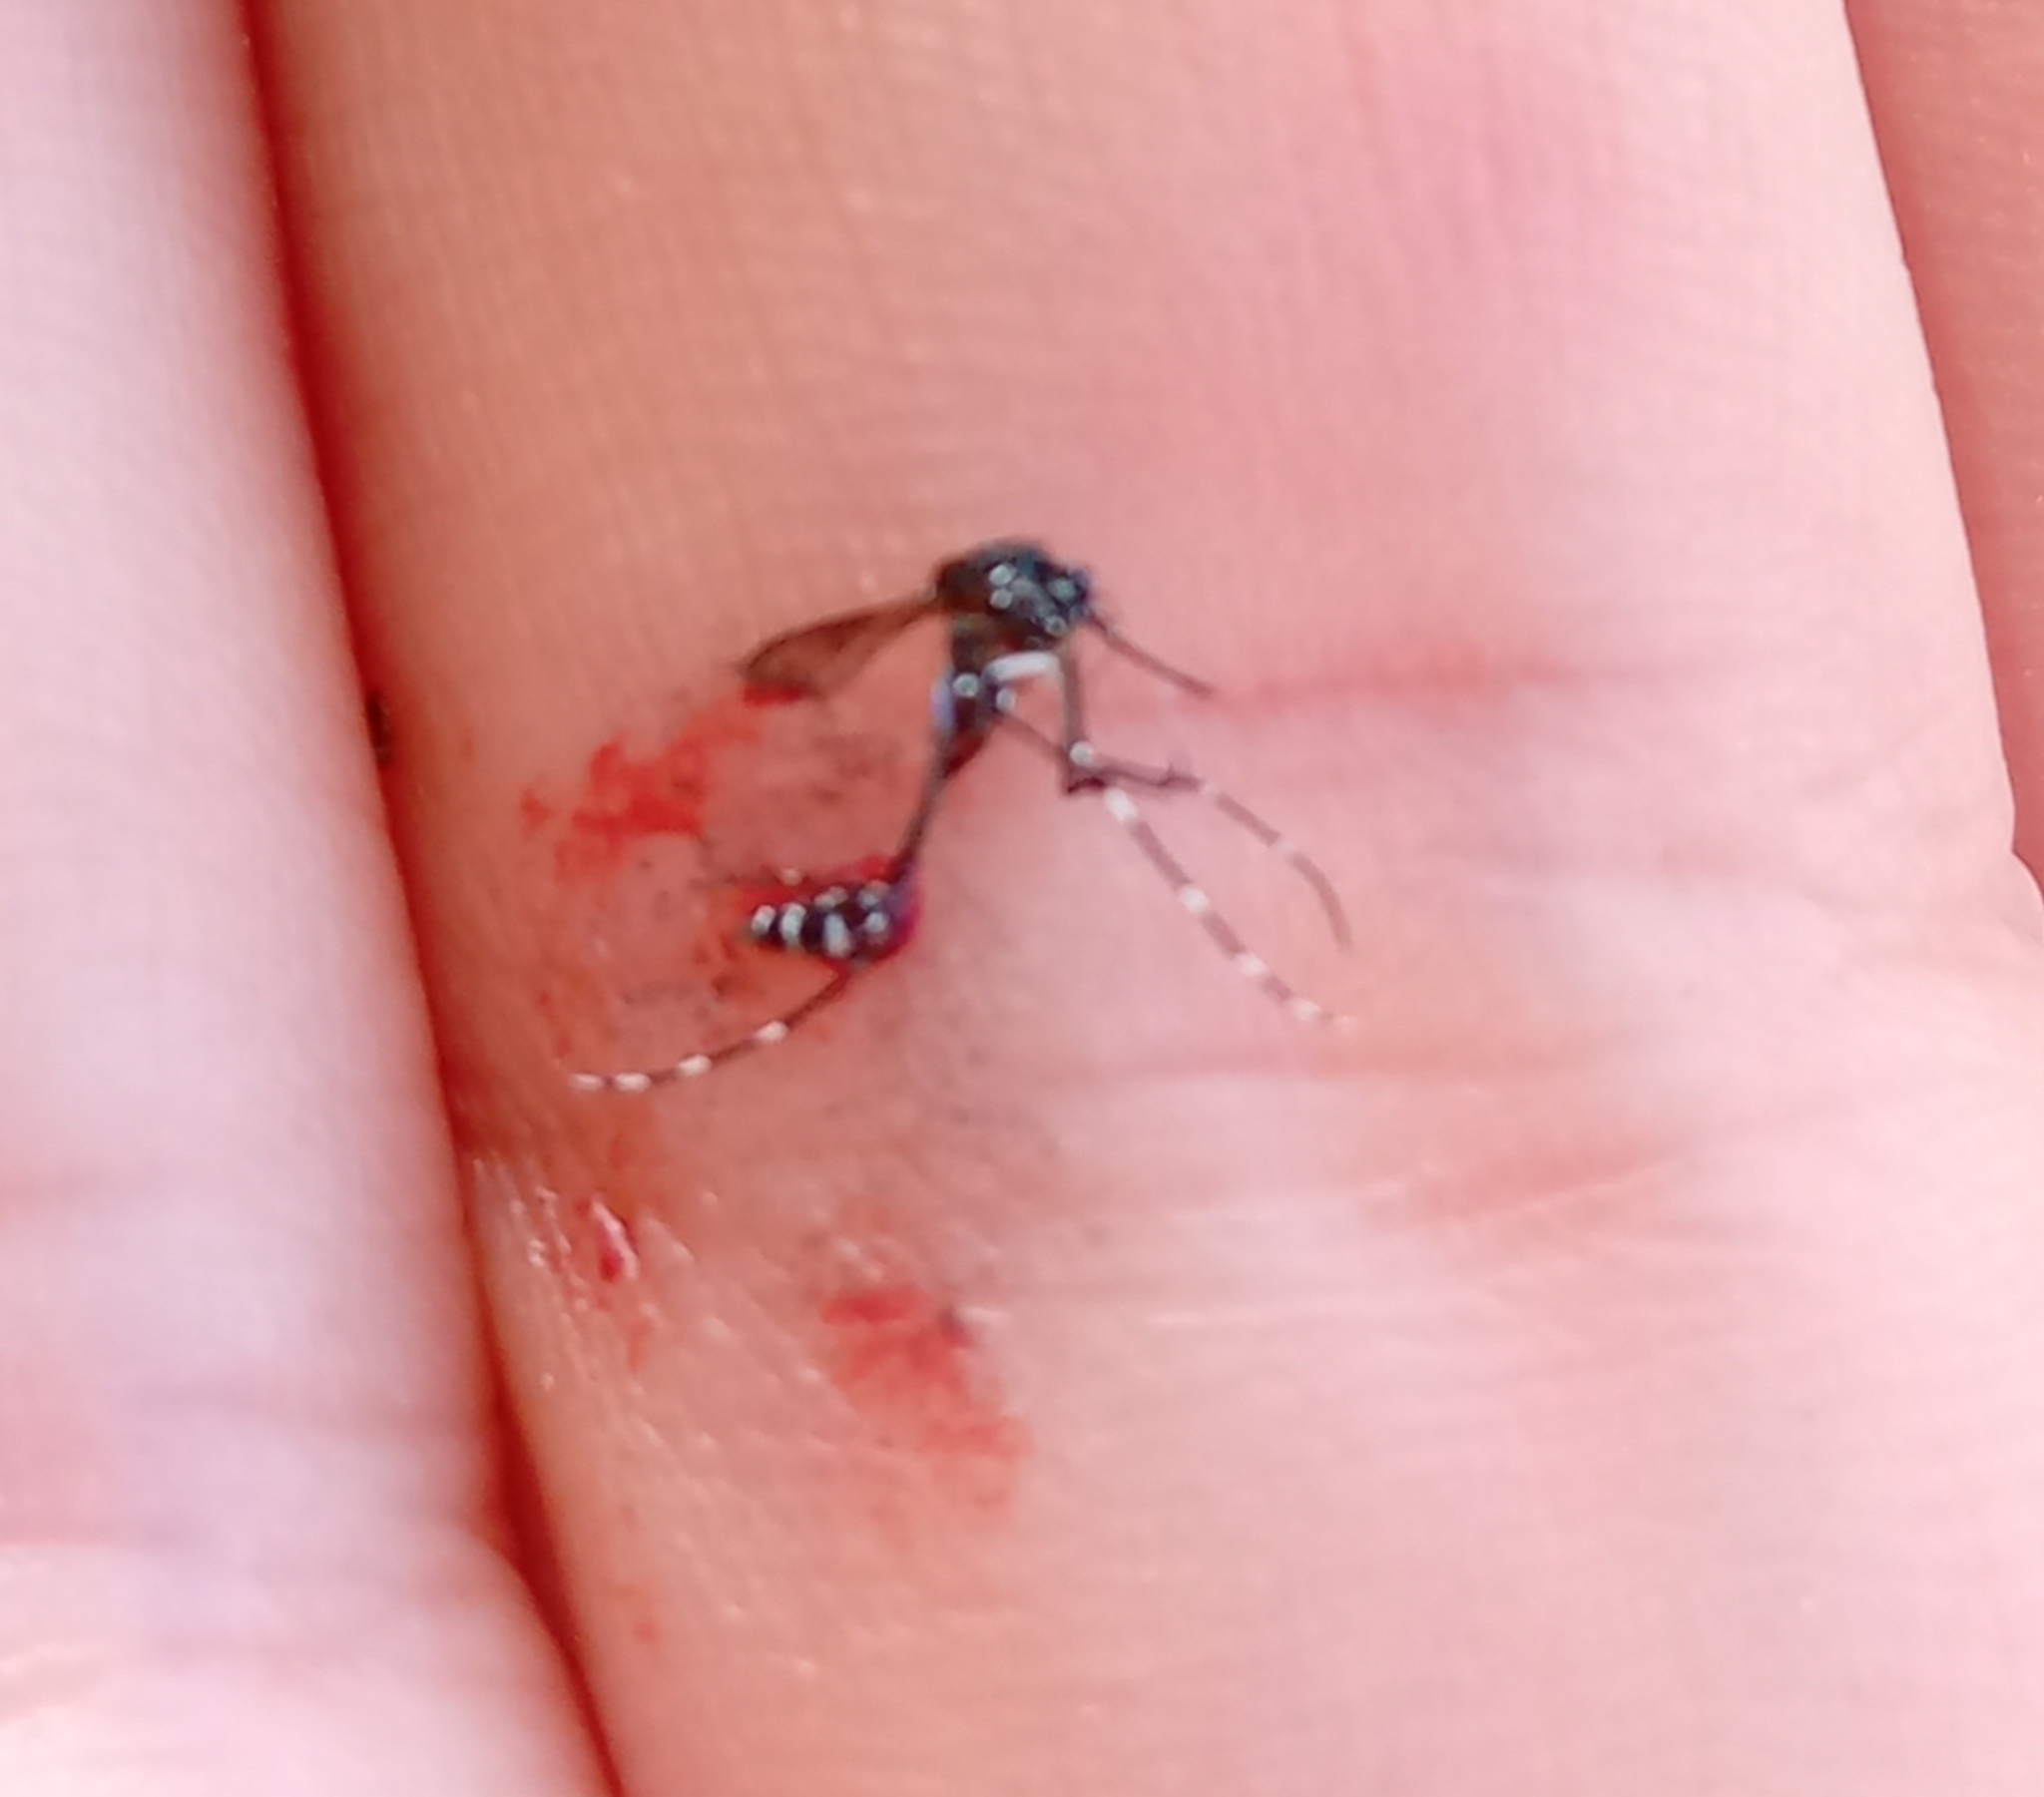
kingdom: Animalia
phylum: Arthropoda
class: Insecta
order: Diptera
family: Culicidae
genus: Aedes
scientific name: Aedes albopictus
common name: Tiger mosquito
